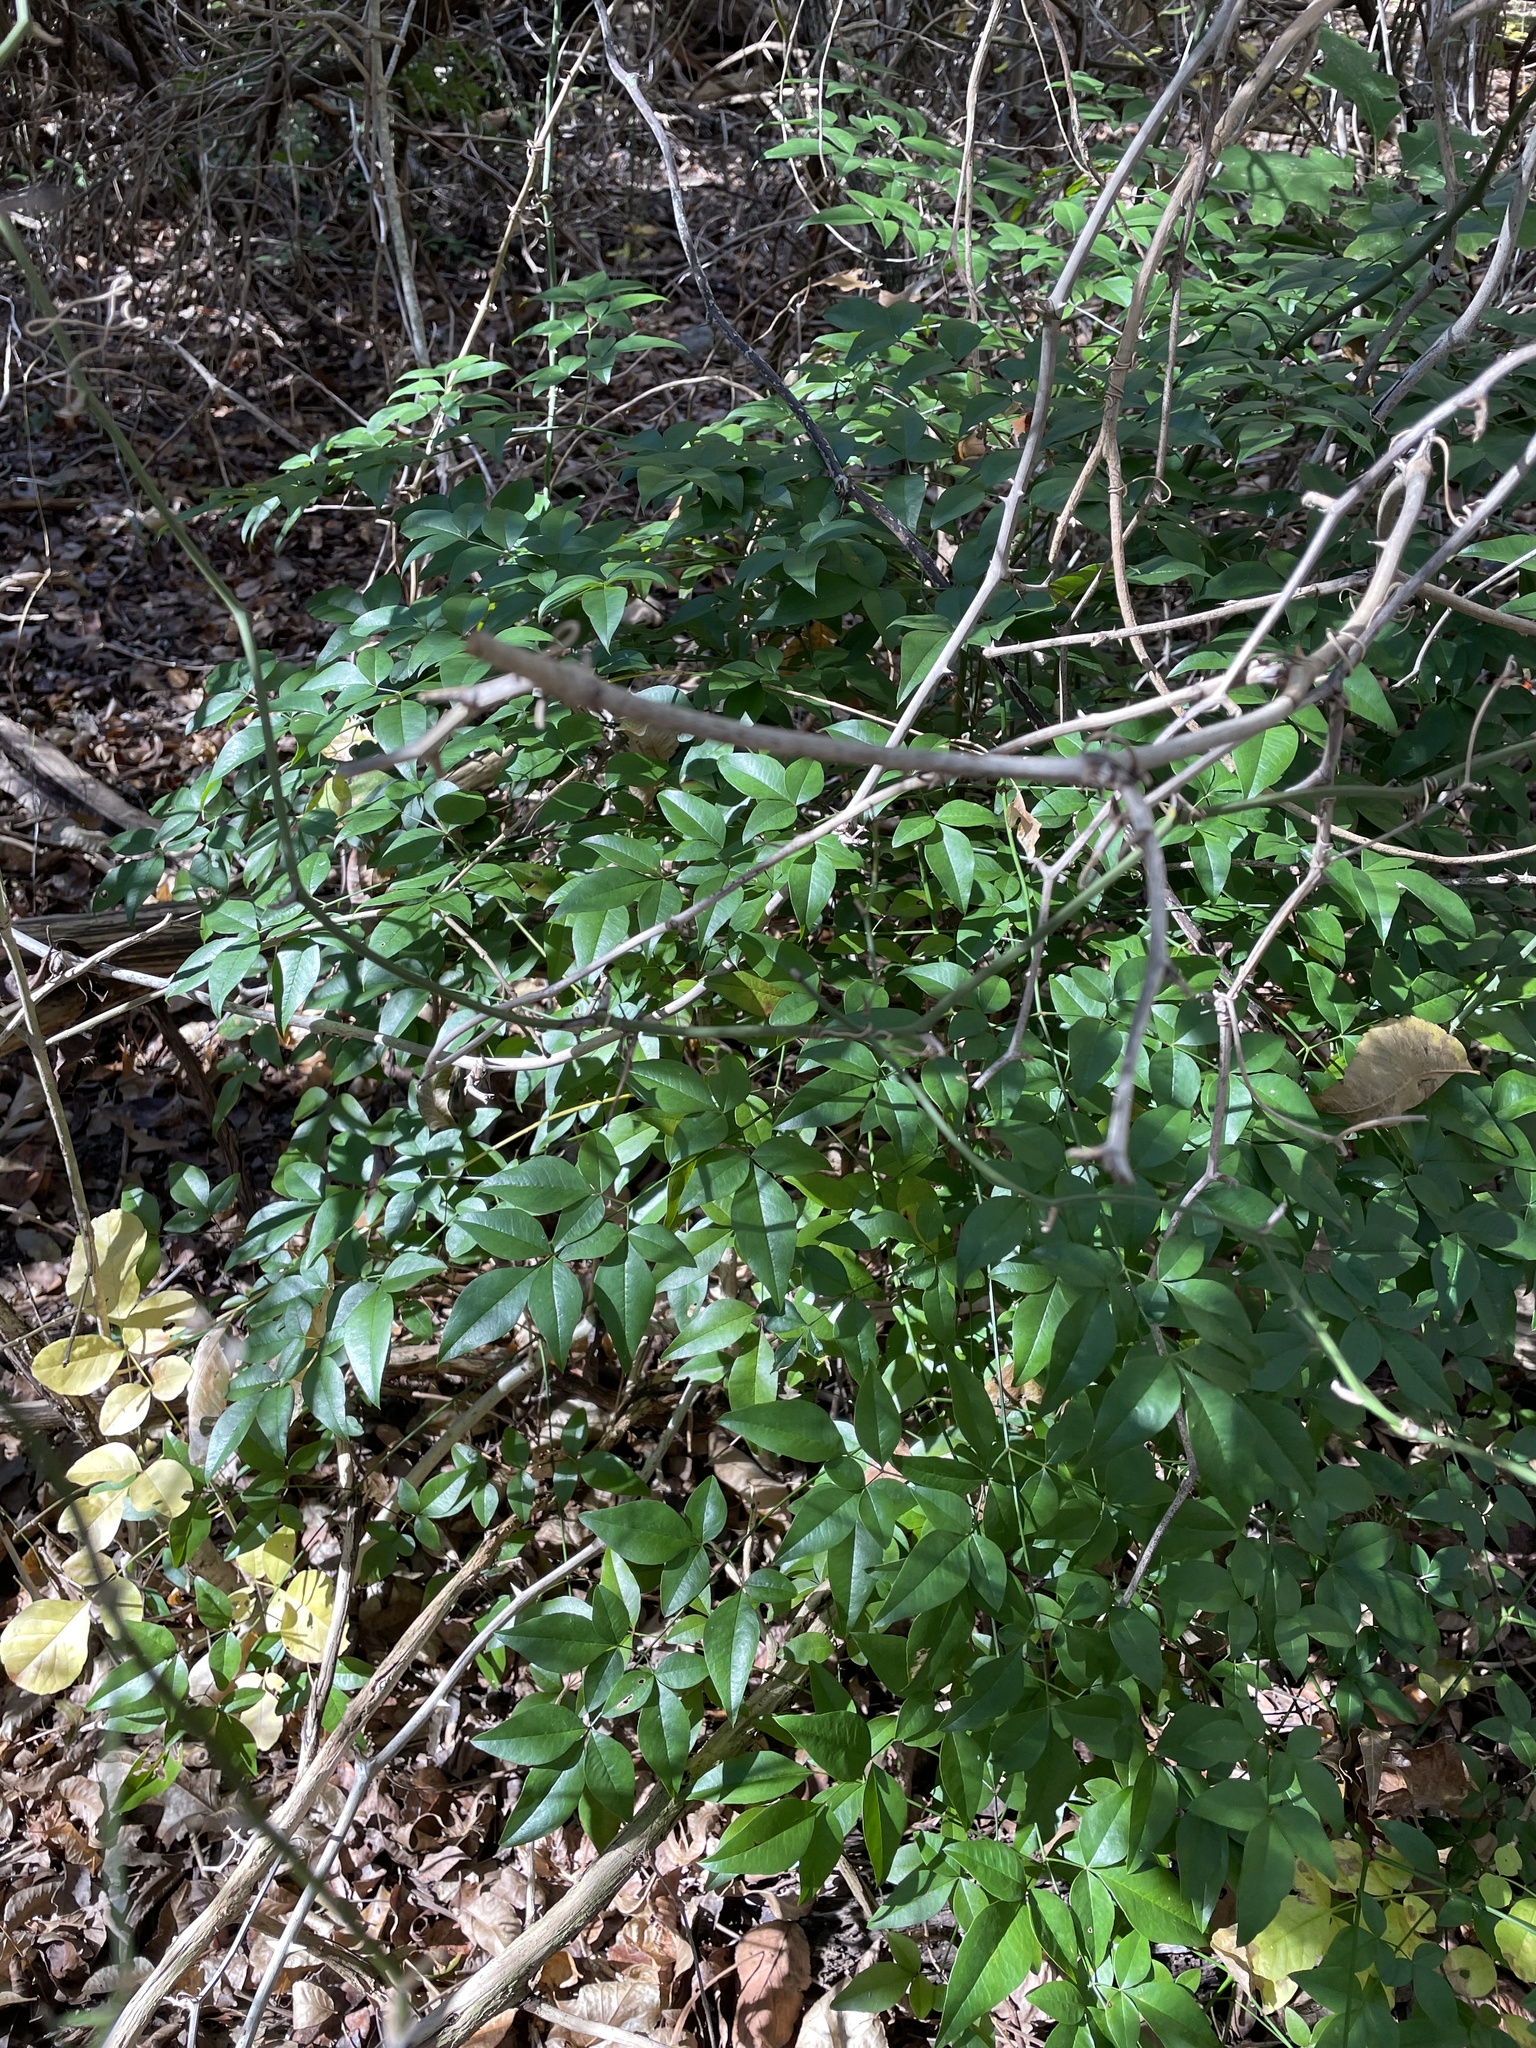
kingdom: Plantae
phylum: Tracheophyta
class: Magnoliopsida
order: Ranunculales
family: Berberidaceae
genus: Nandina
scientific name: Nandina domestica
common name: Sacred bamboo
